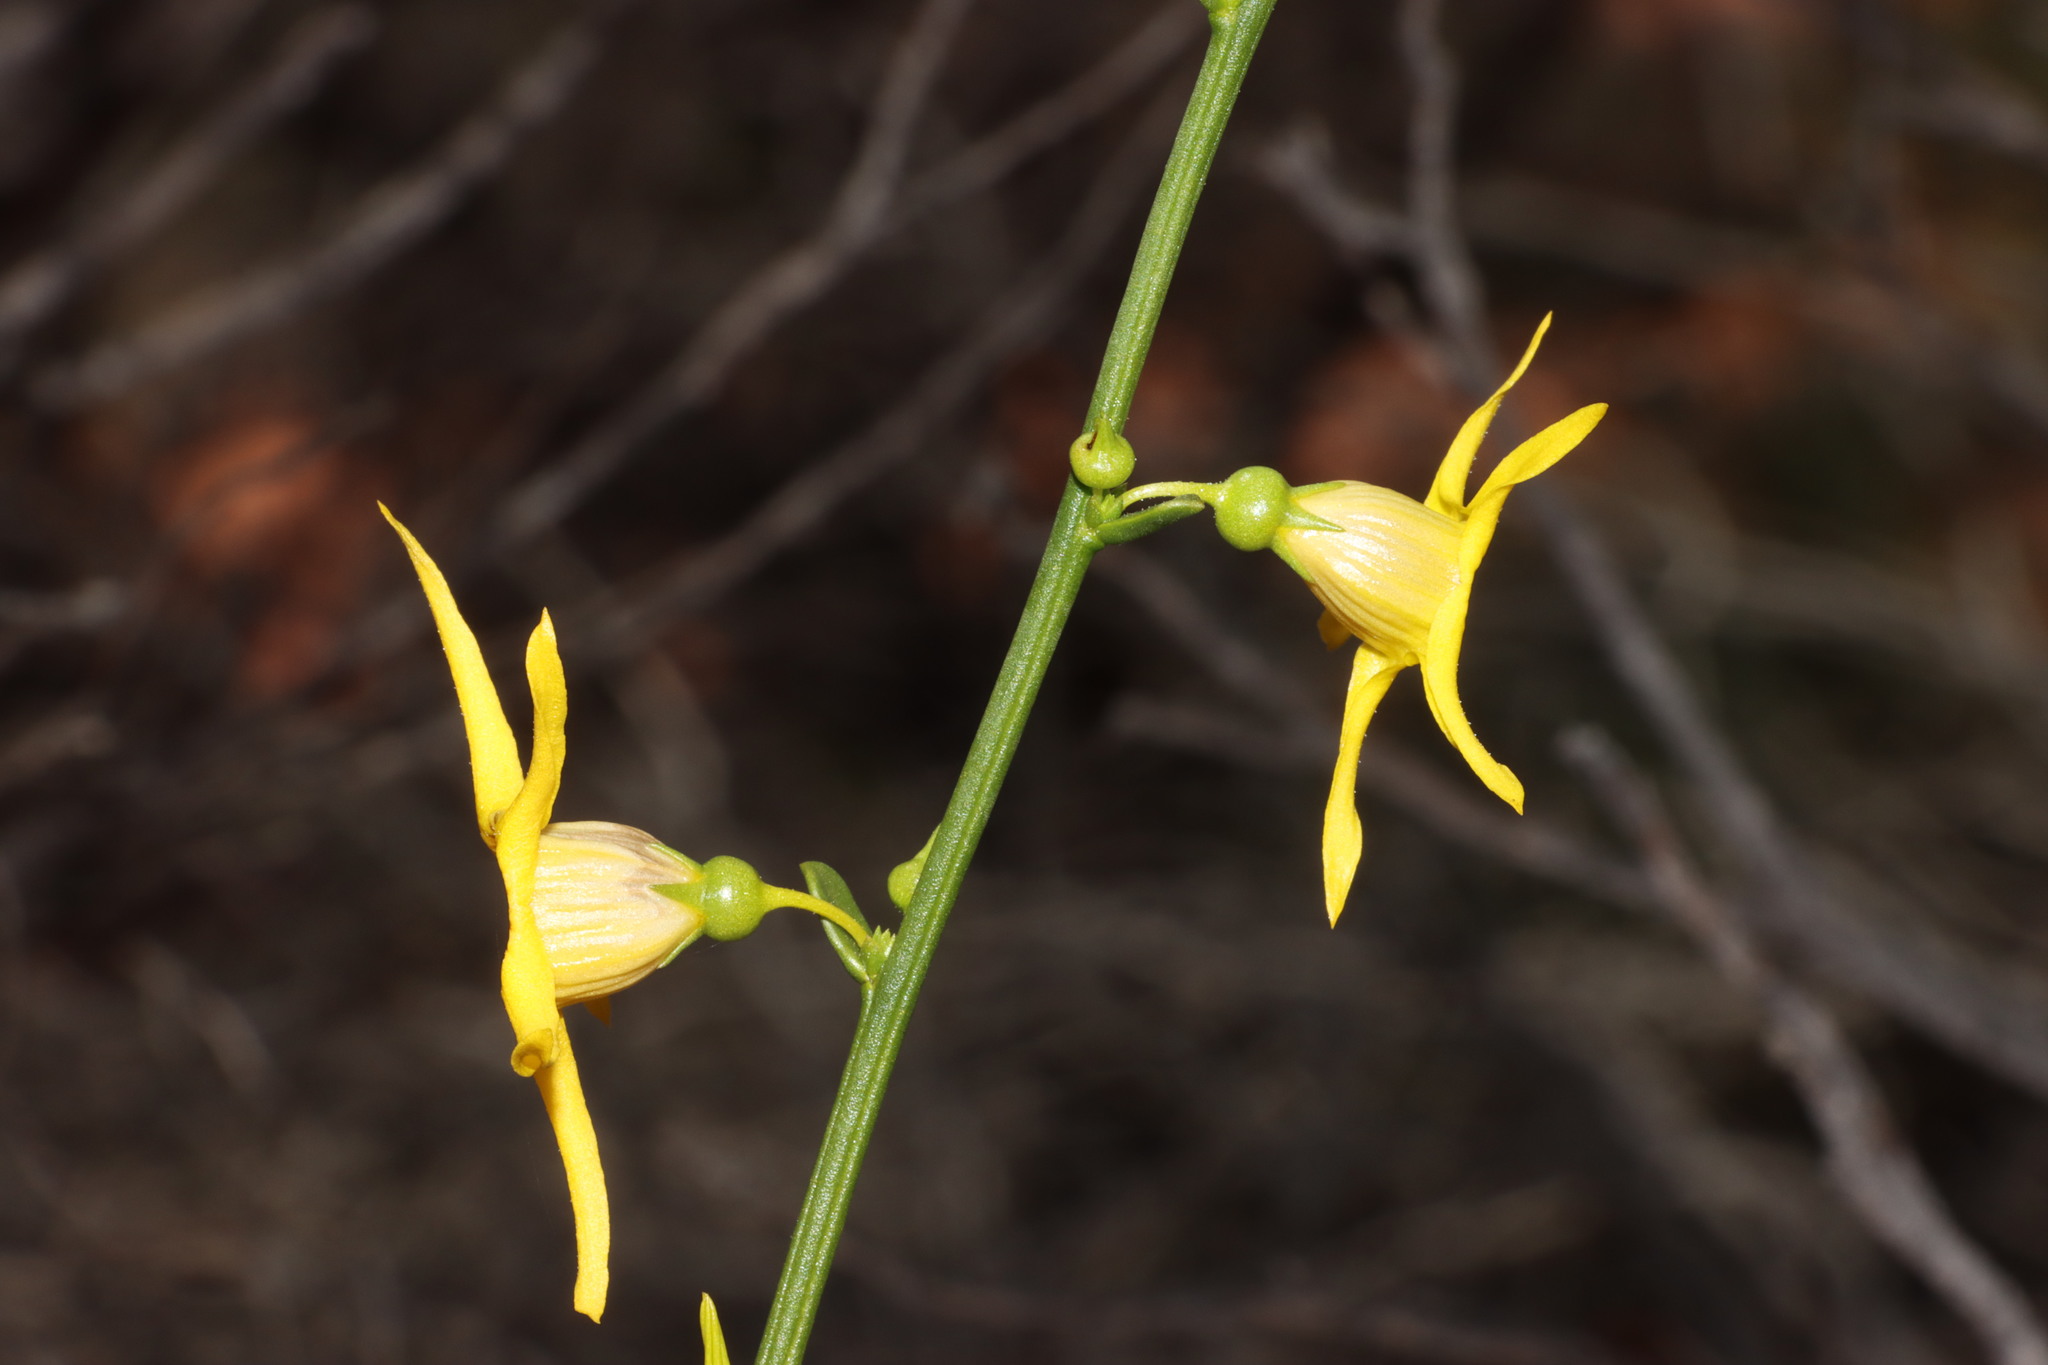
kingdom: Plantae
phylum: Tracheophyta
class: Magnoliopsida
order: Solanales
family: Solanaceae
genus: Anthocercis
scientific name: Anthocercis ilicifolia
